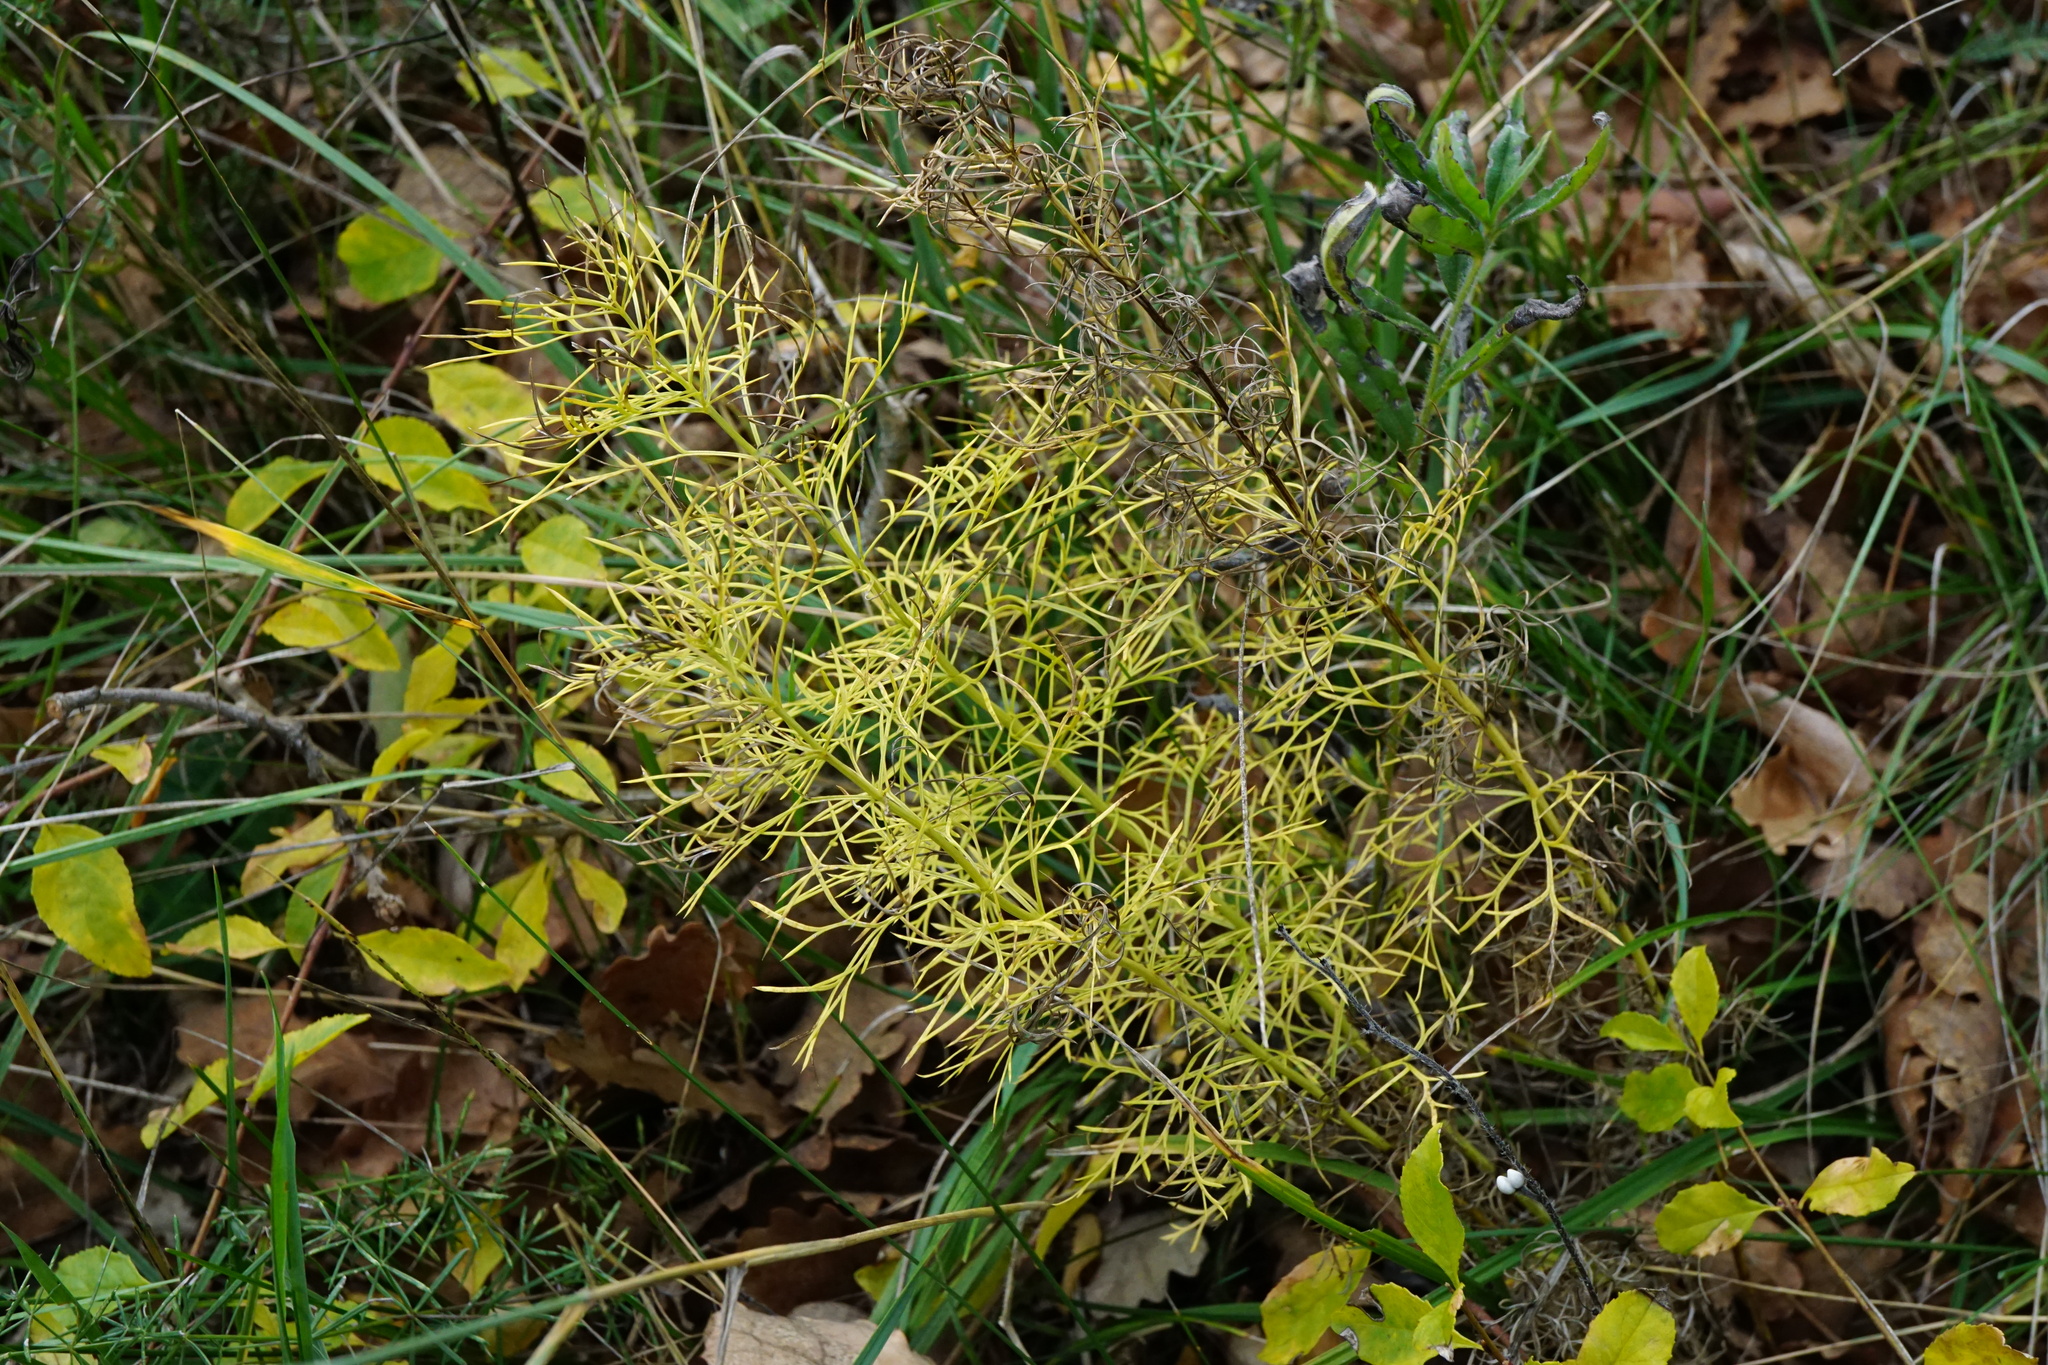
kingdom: Plantae
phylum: Tracheophyta
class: Magnoliopsida
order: Ranunculales
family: Ranunculaceae
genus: Adonis
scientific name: Adonis vernalis
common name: Yellow pheasants-eye
